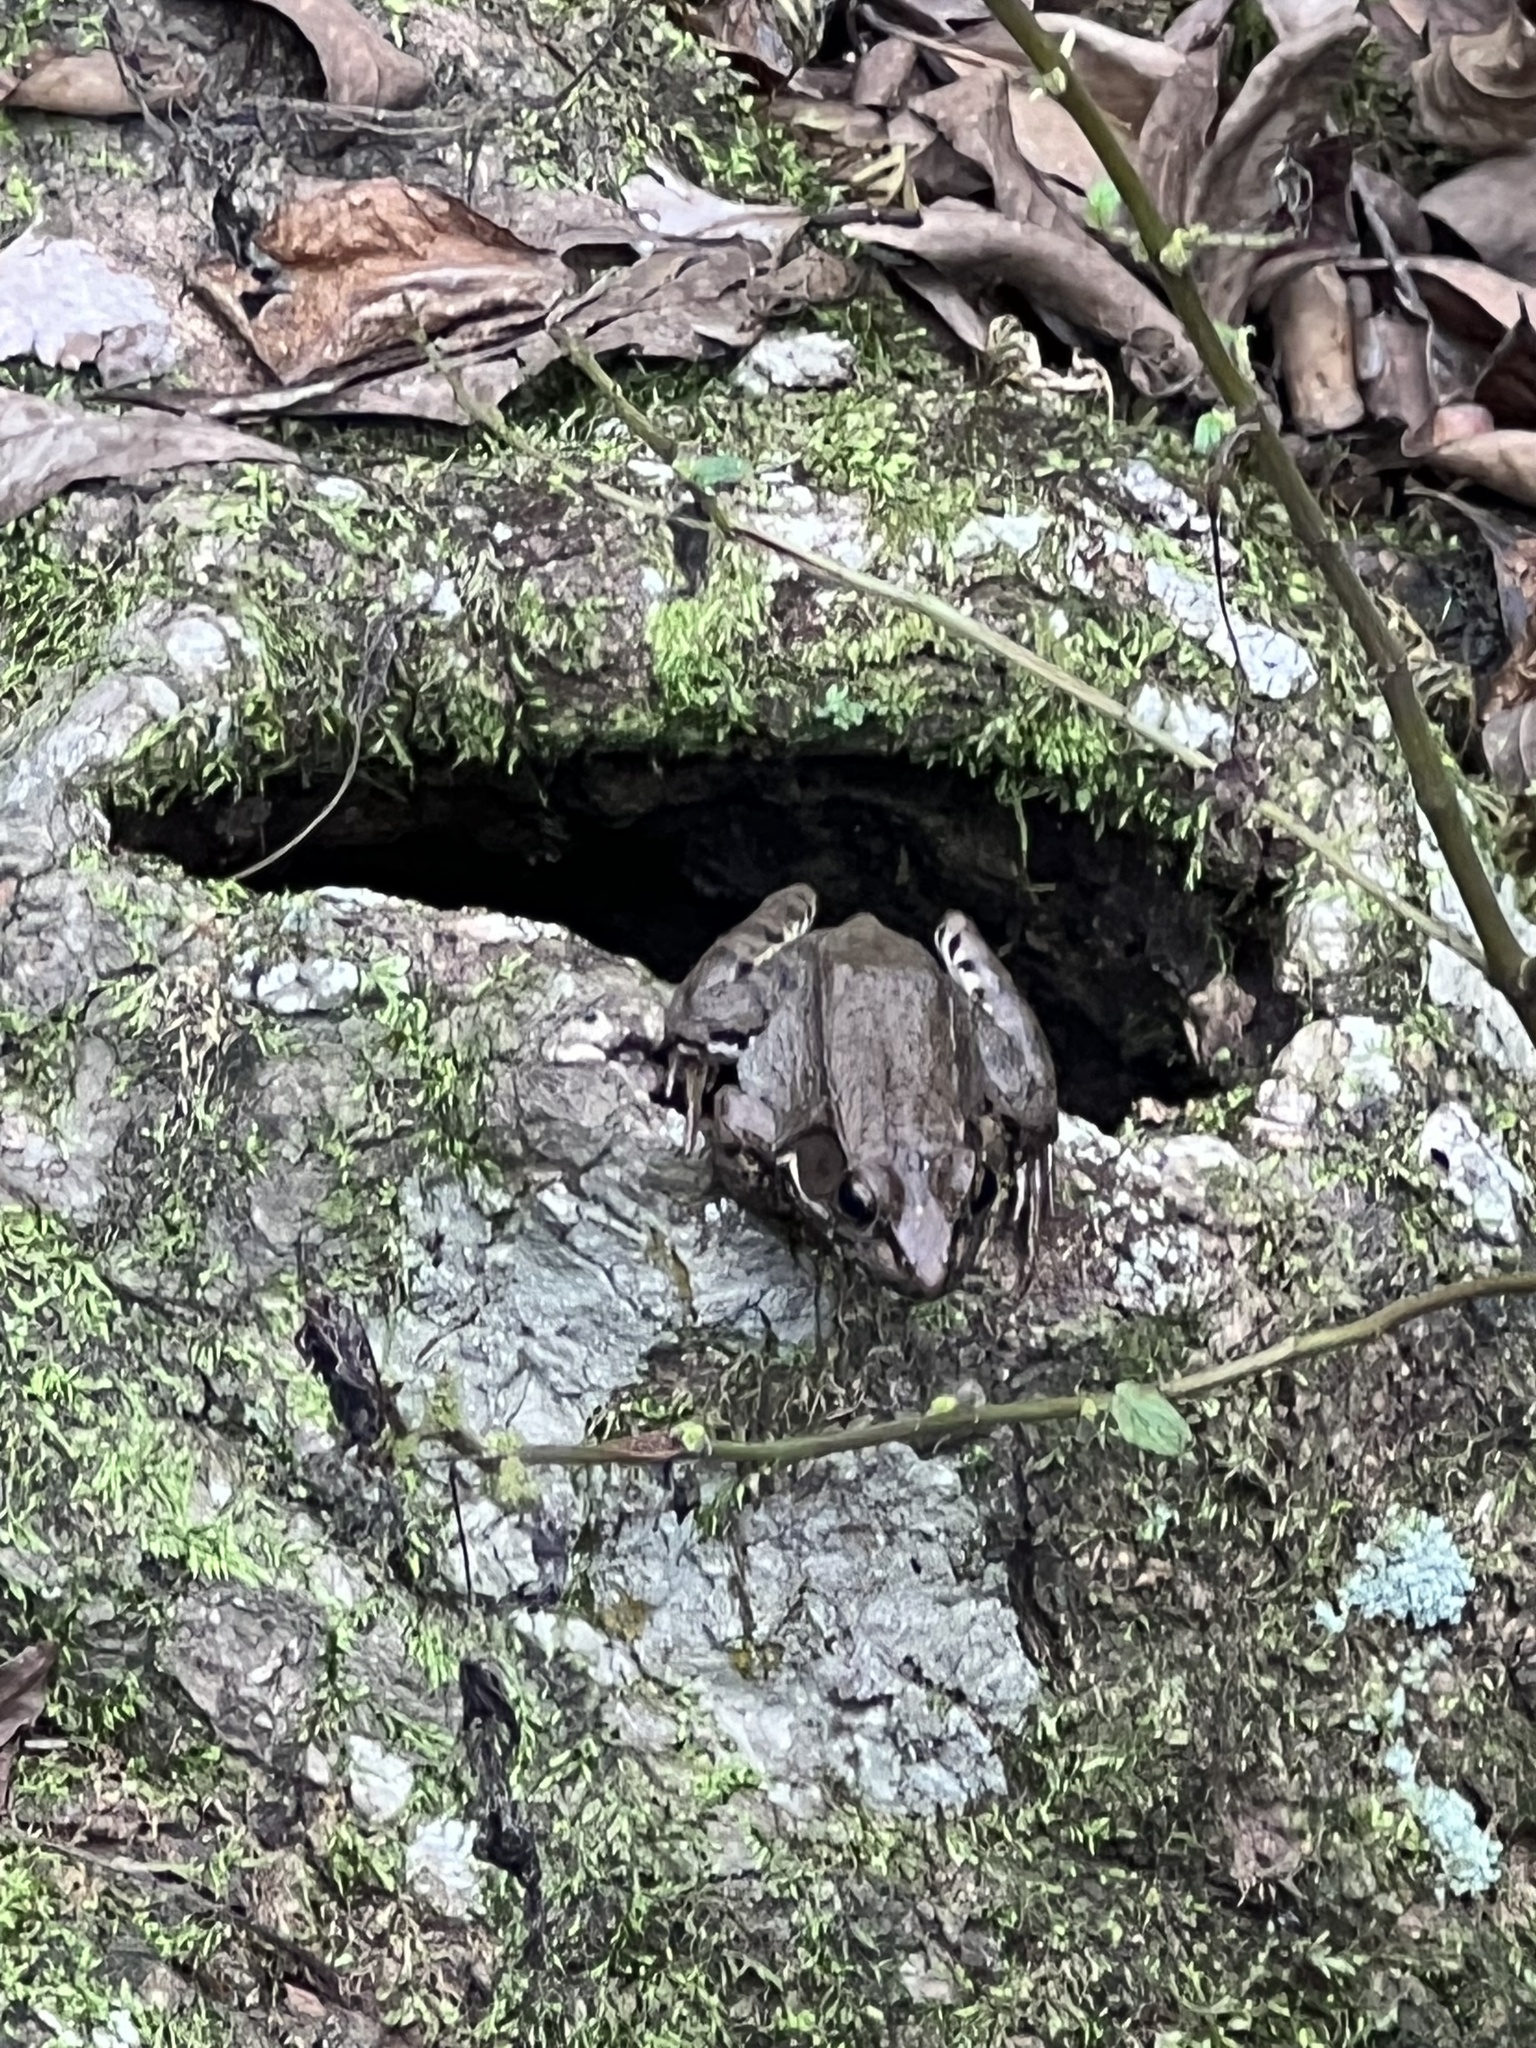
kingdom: Animalia
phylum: Chordata
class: Amphibia
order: Anura
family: Ranidae
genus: Lithobates
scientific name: Lithobates clamitans
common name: Green frog
